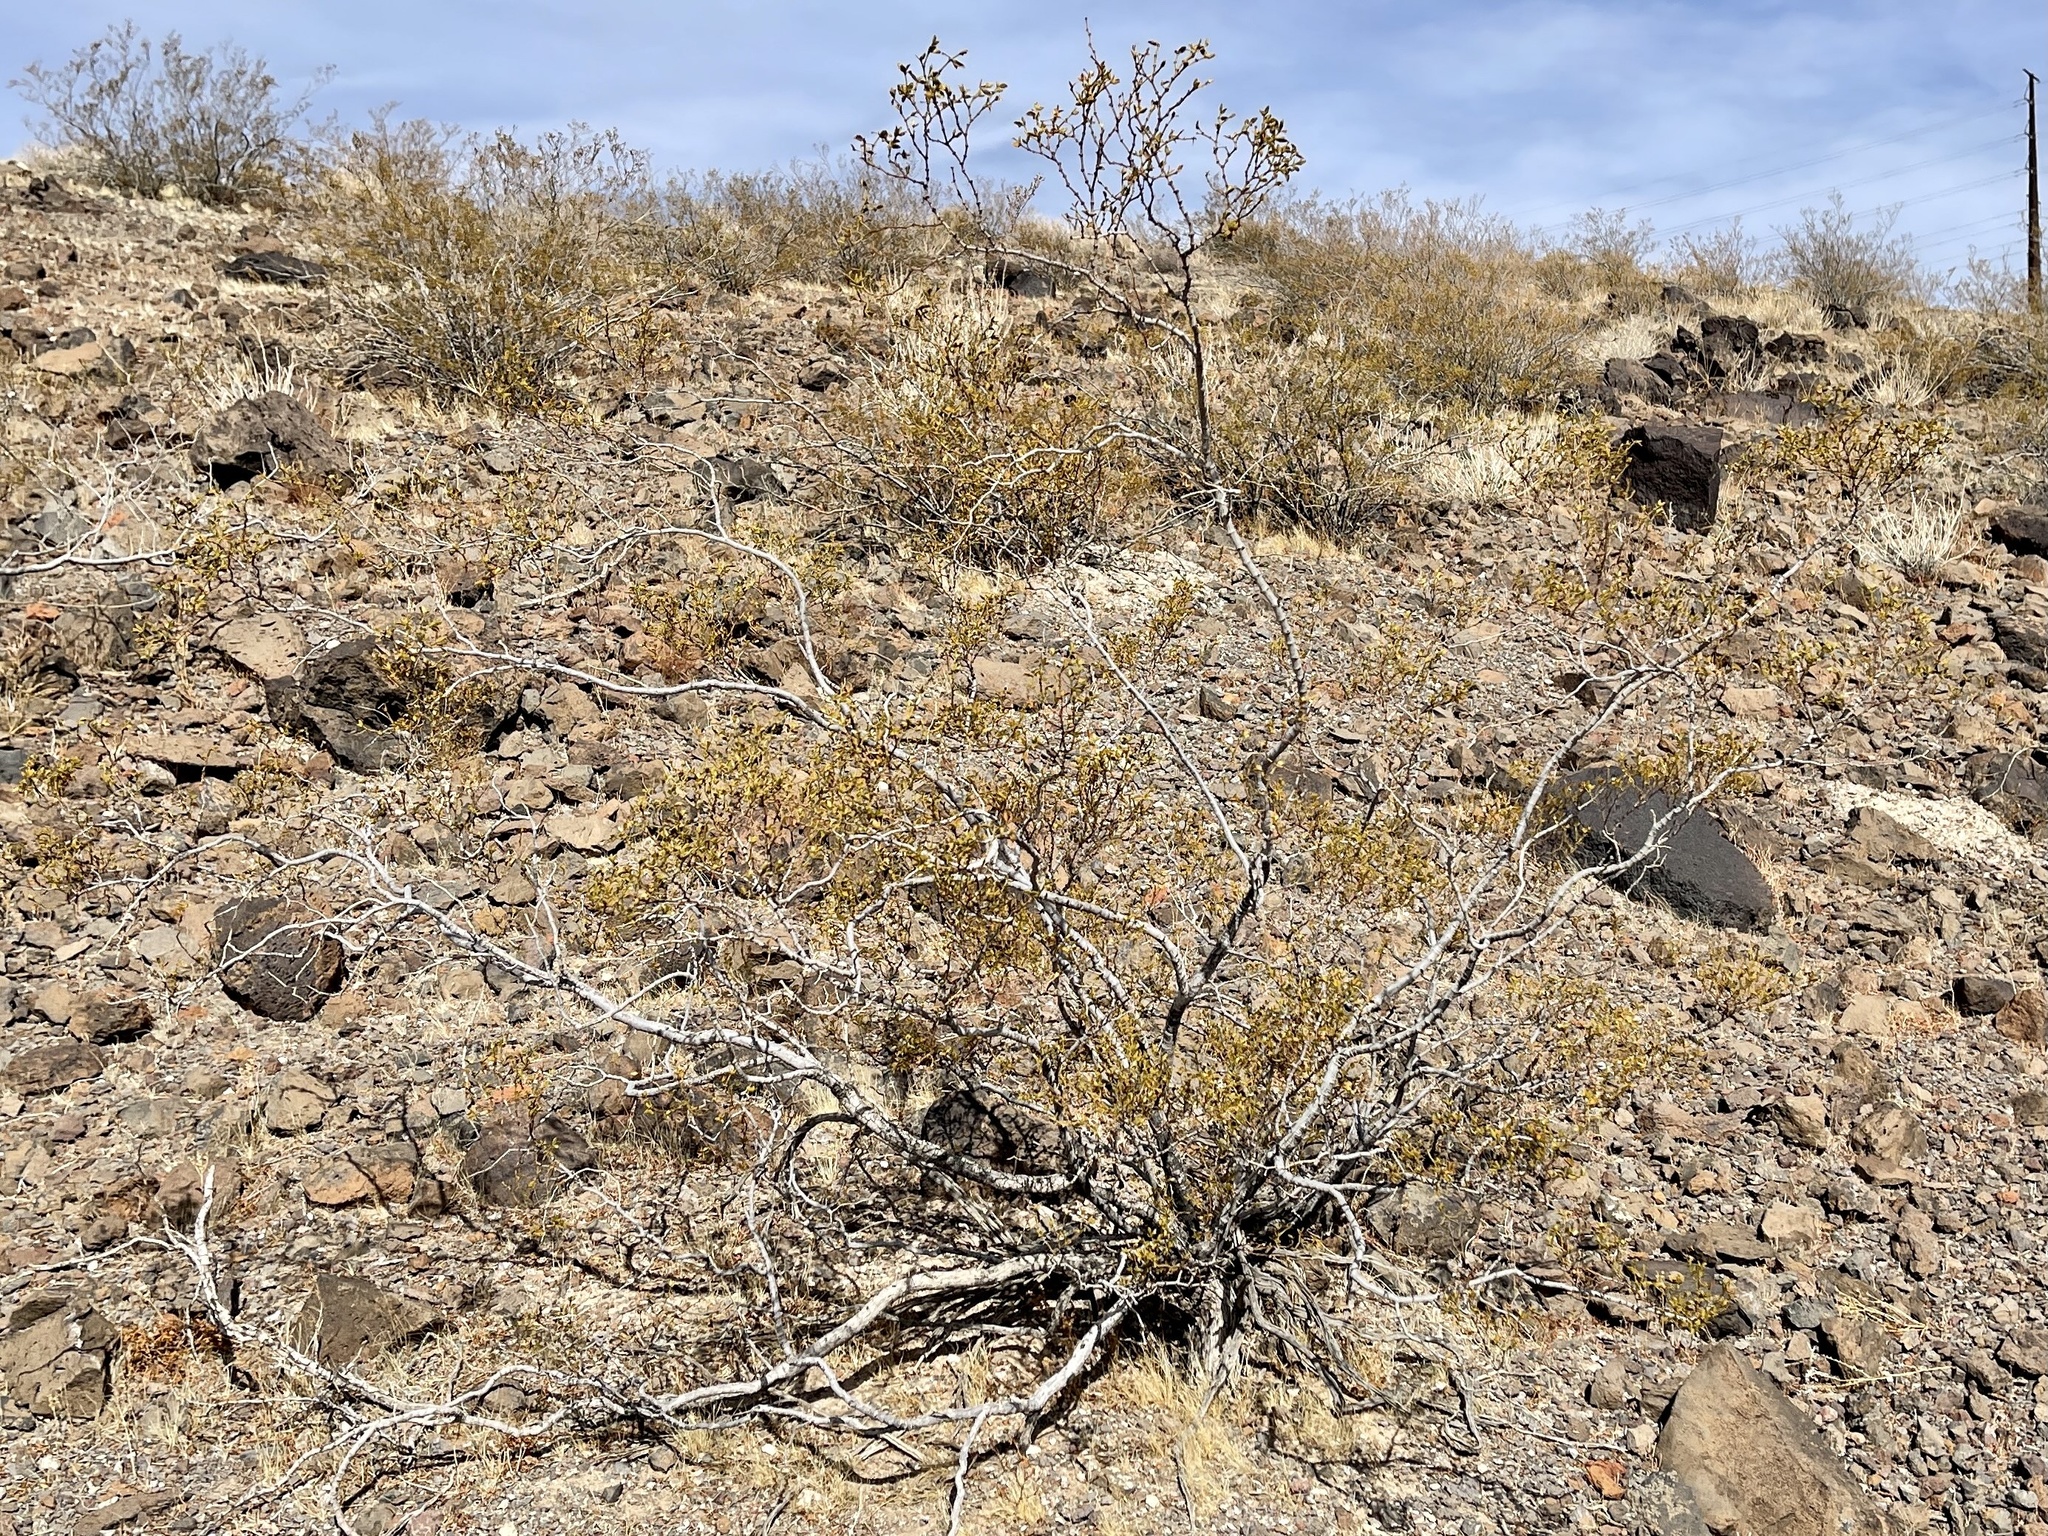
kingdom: Plantae
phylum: Tracheophyta
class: Magnoliopsida
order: Zygophyllales
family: Zygophyllaceae
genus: Larrea
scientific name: Larrea tridentata
